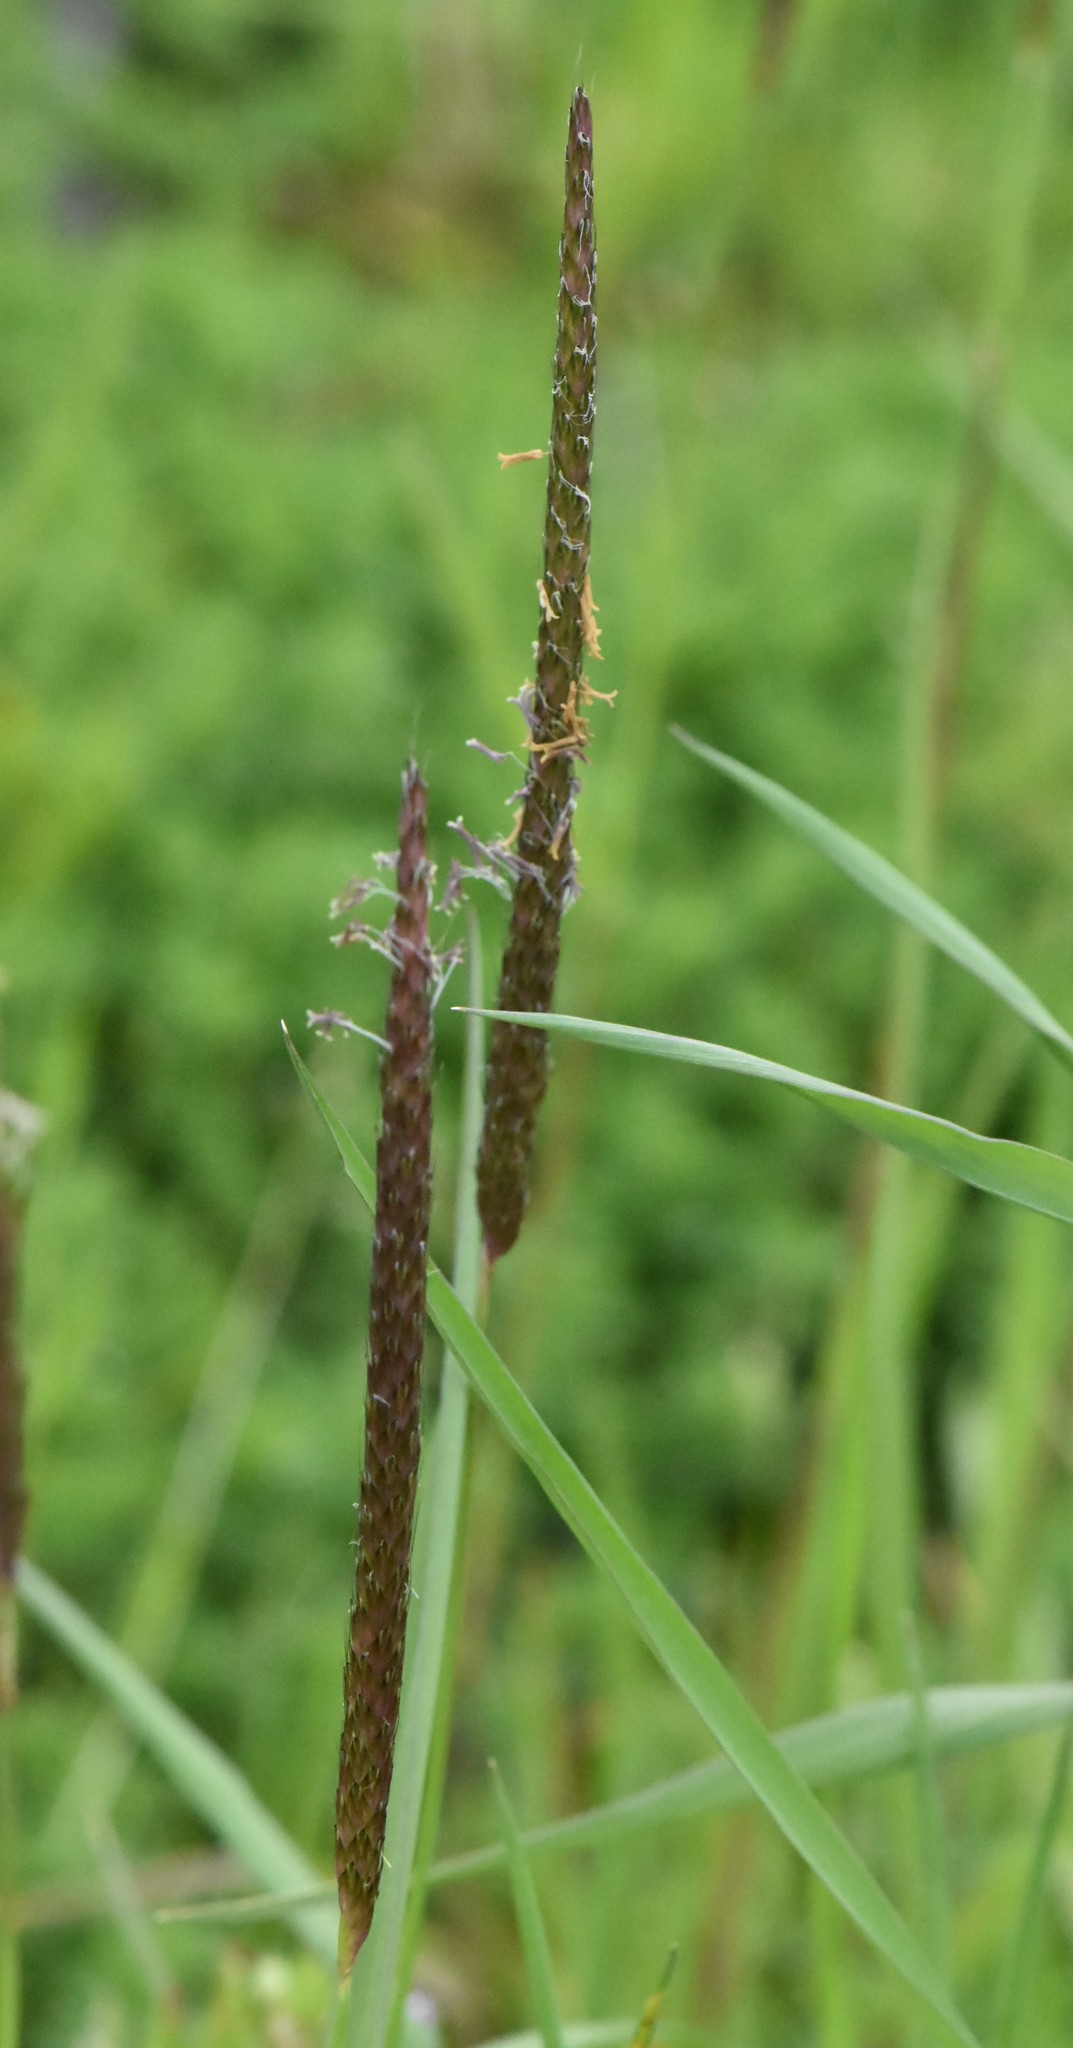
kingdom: Plantae
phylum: Tracheophyta
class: Liliopsida
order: Poales
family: Poaceae
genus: Alopecurus
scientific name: Alopecurus myosuroides
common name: Black-grass
